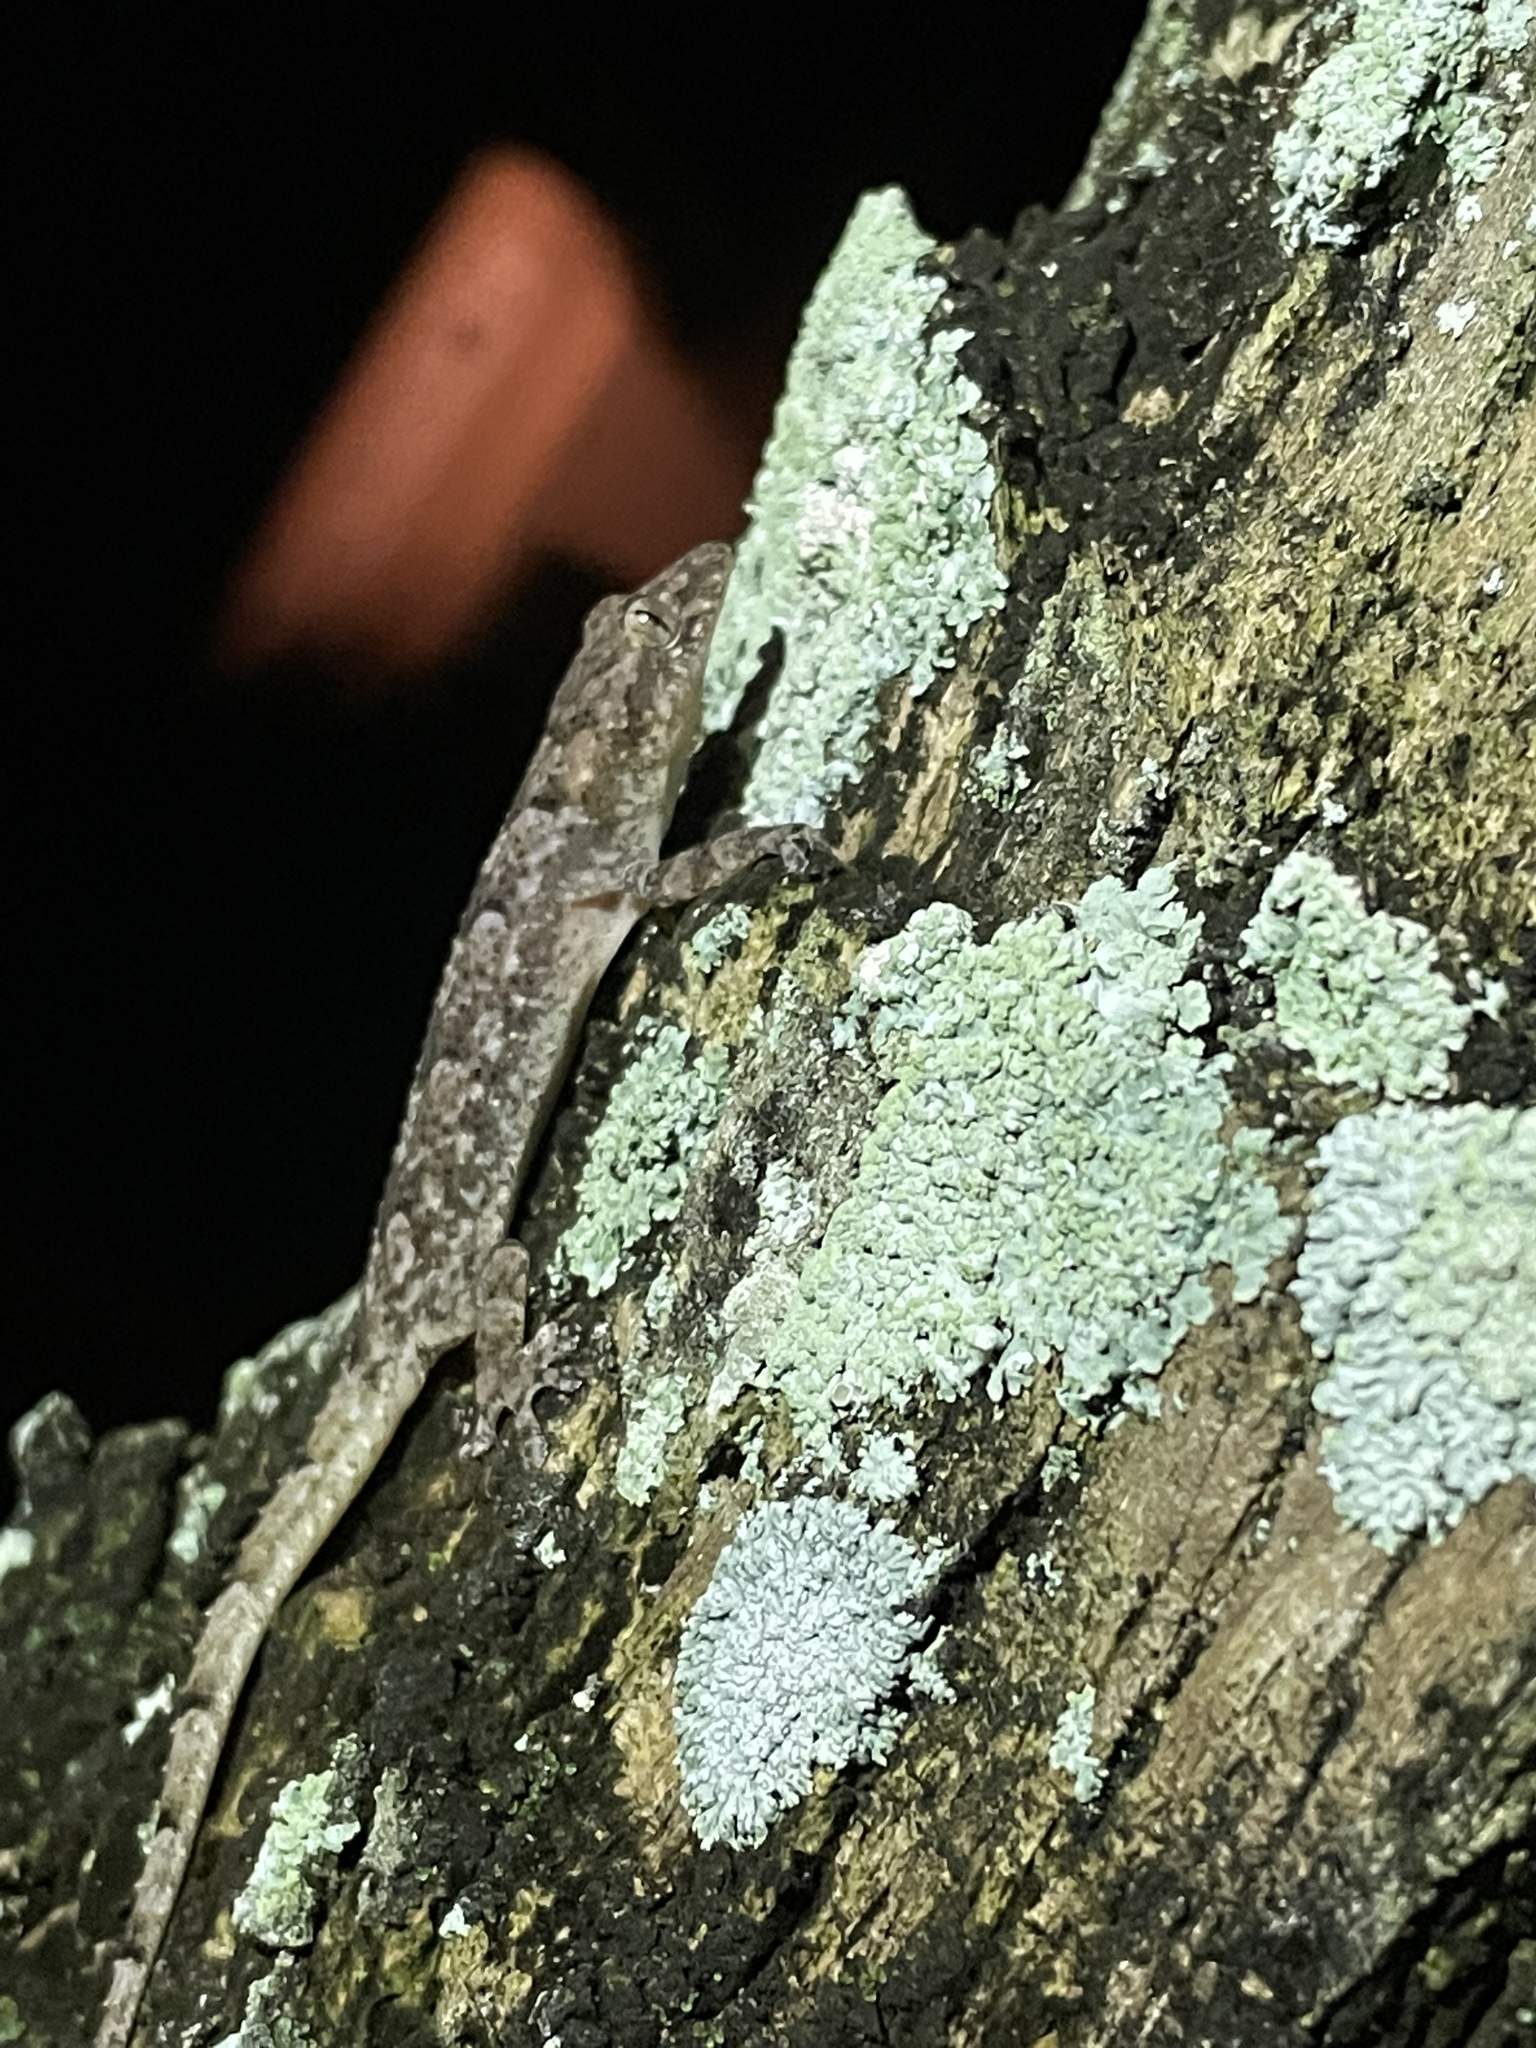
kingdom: Animalia
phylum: Chordata
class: Squamata
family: Gekkonidae
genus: Hemidactylus
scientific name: Hemidactylus mabouia
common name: House gecko
